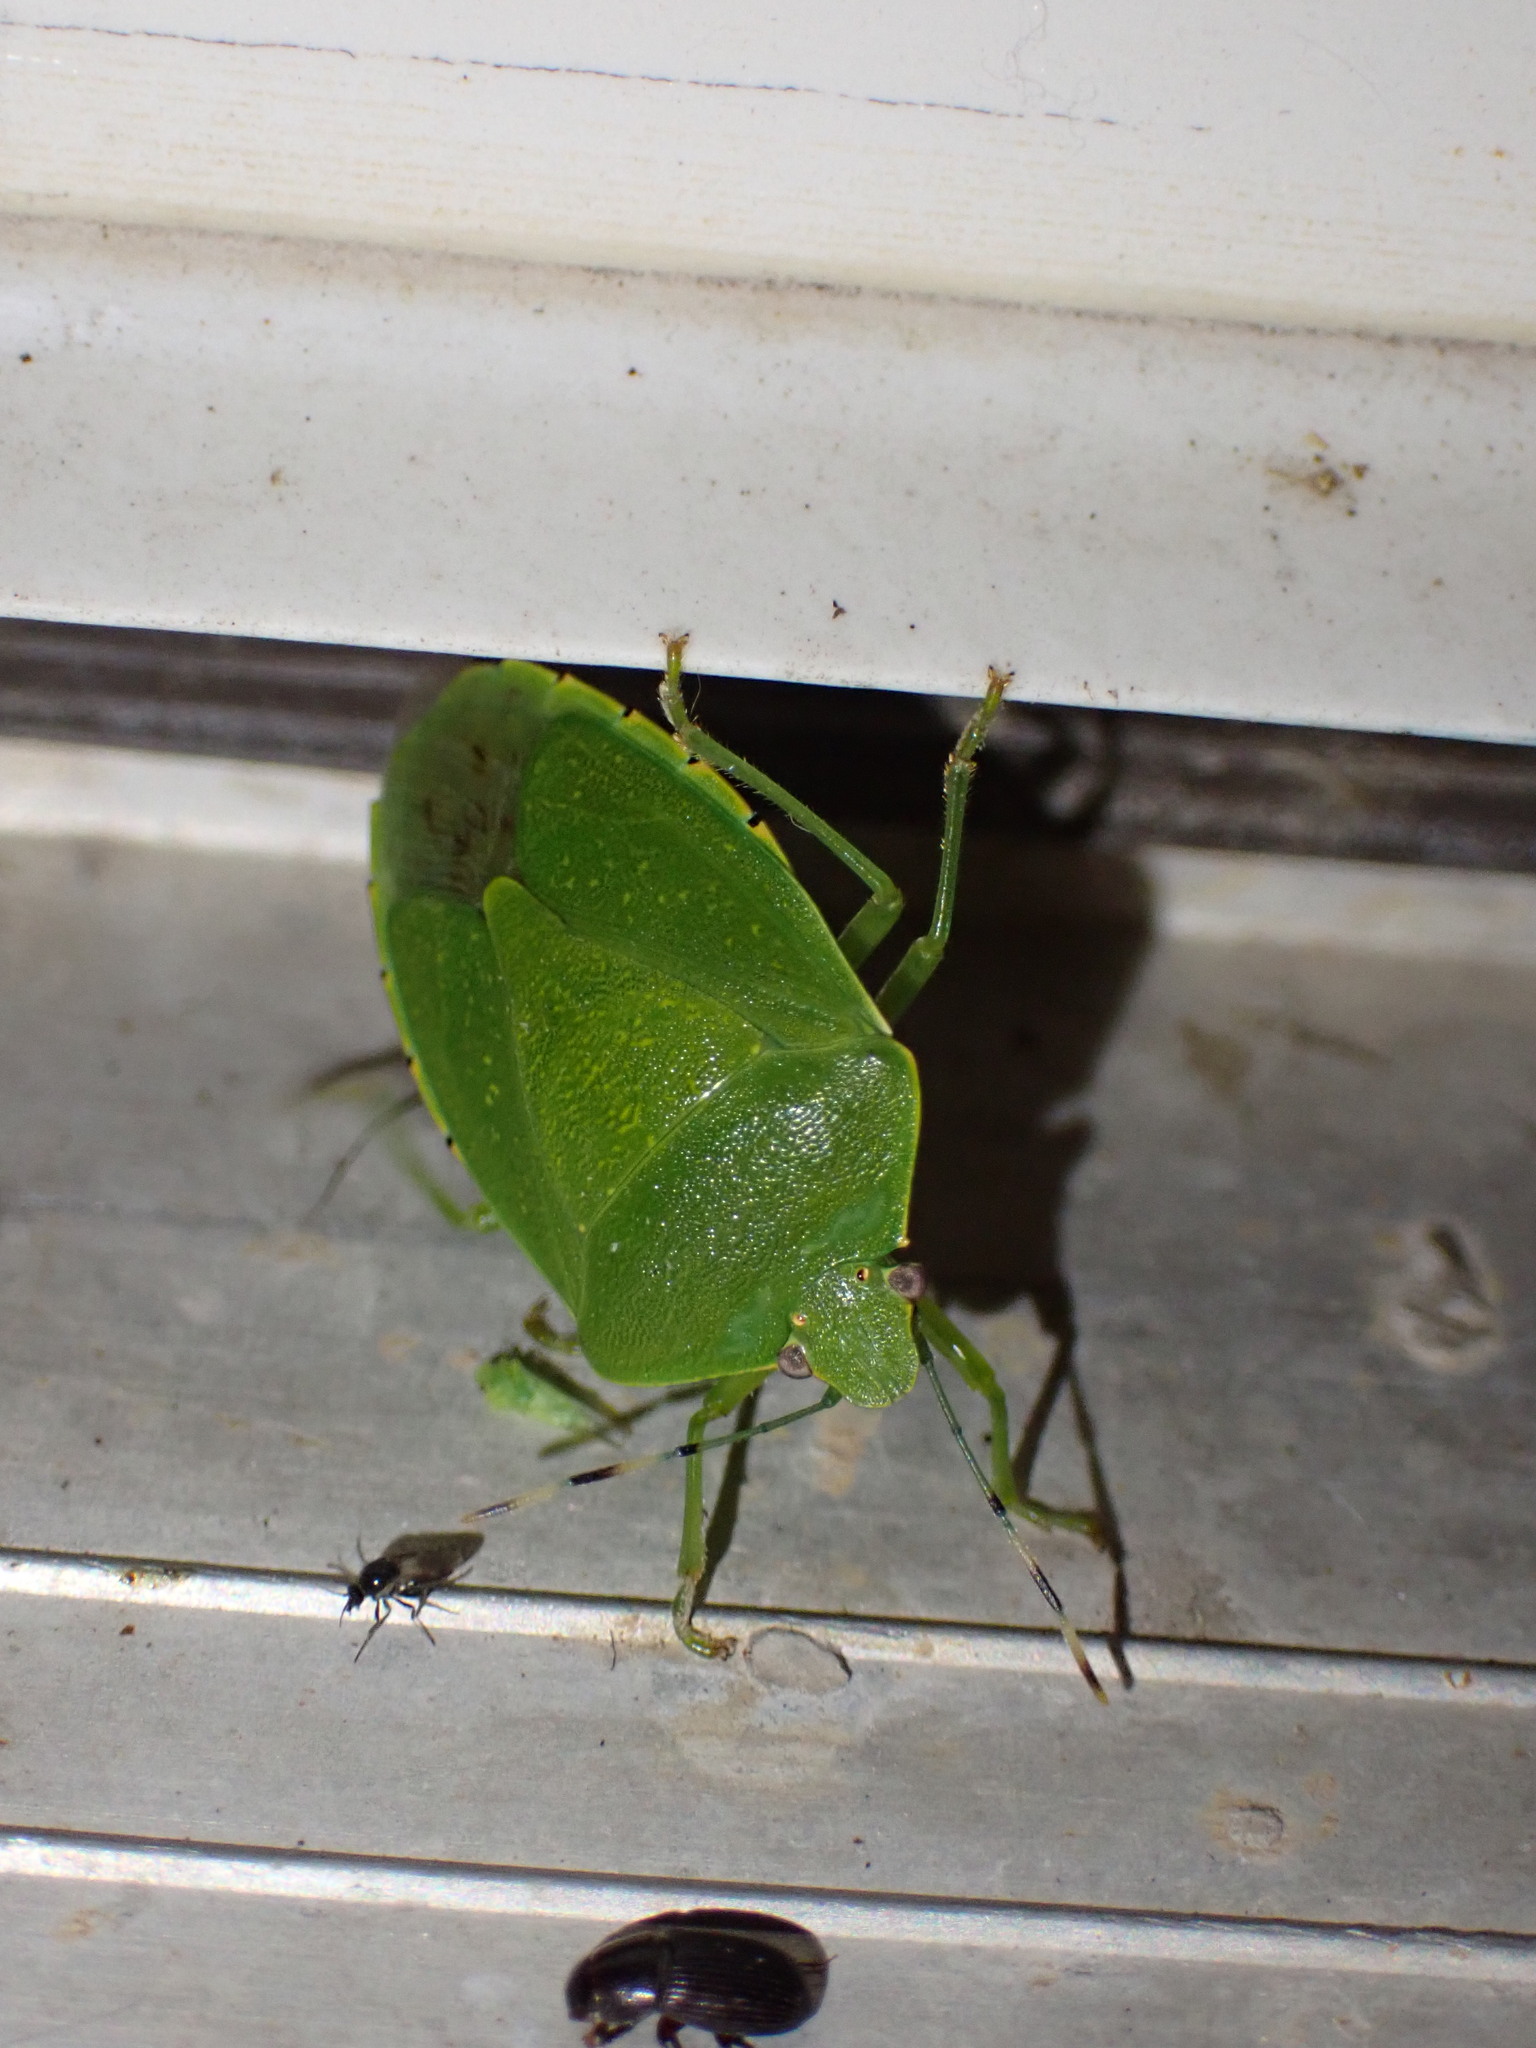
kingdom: Animalia
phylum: Arthropoda
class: Insecta
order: Hemiptera
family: Pentatomidae
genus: Chinavia
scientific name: Chinavia hilaris
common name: Green stink bug
